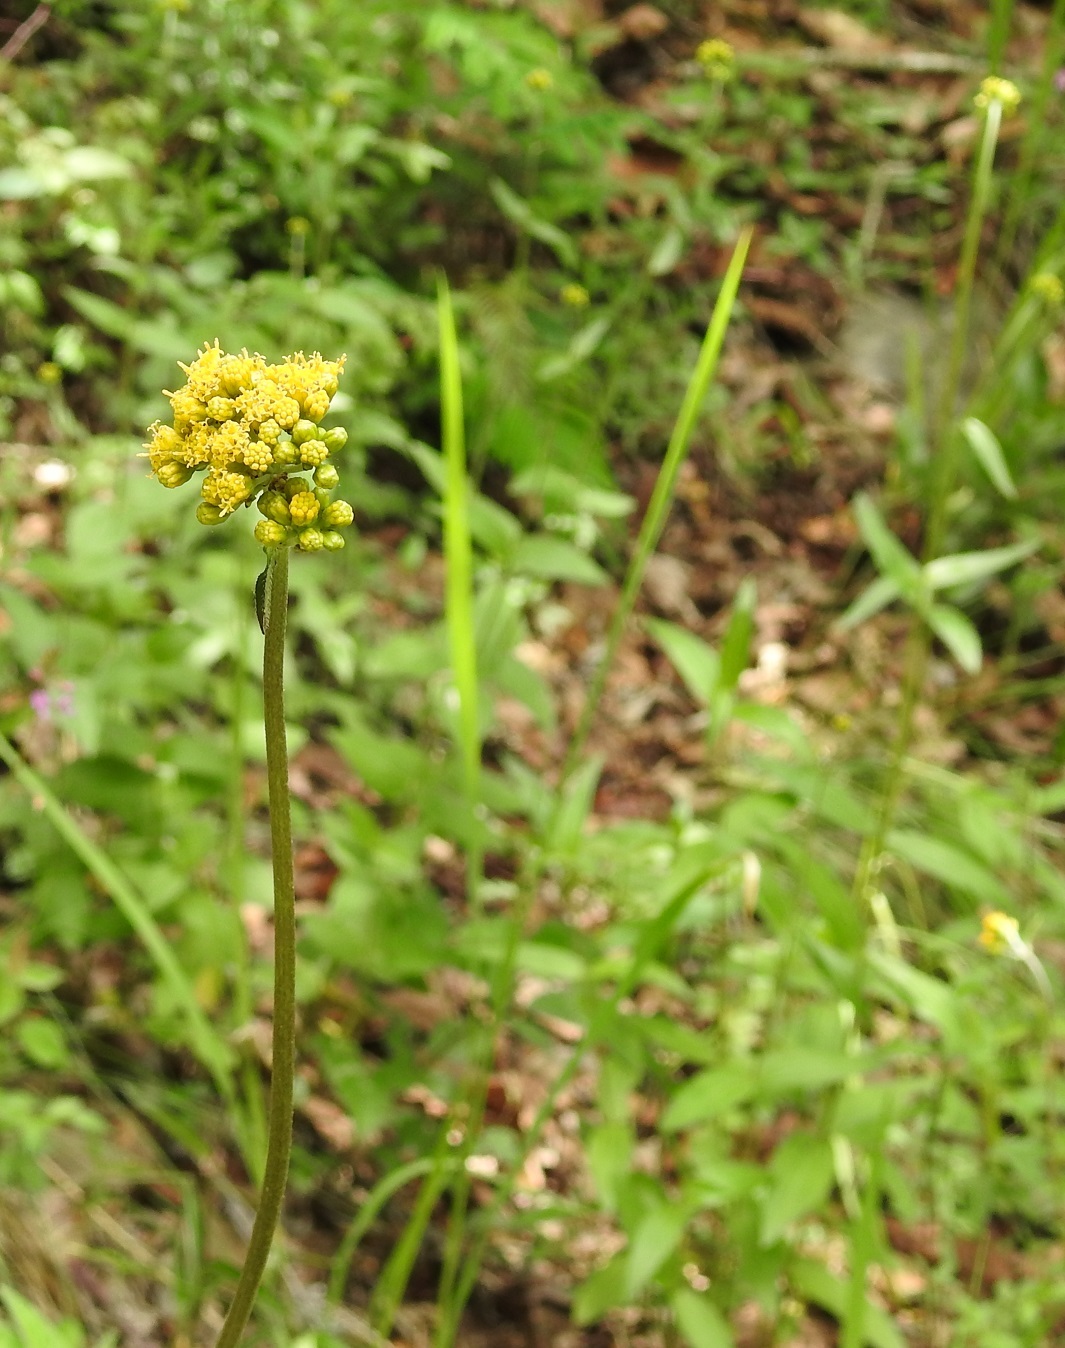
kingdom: Plantae
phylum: Tracheophyta
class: Magnoliopsida
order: Asterales
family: Asteraceae
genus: Alloispermum
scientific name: Alloispermum scabrum
